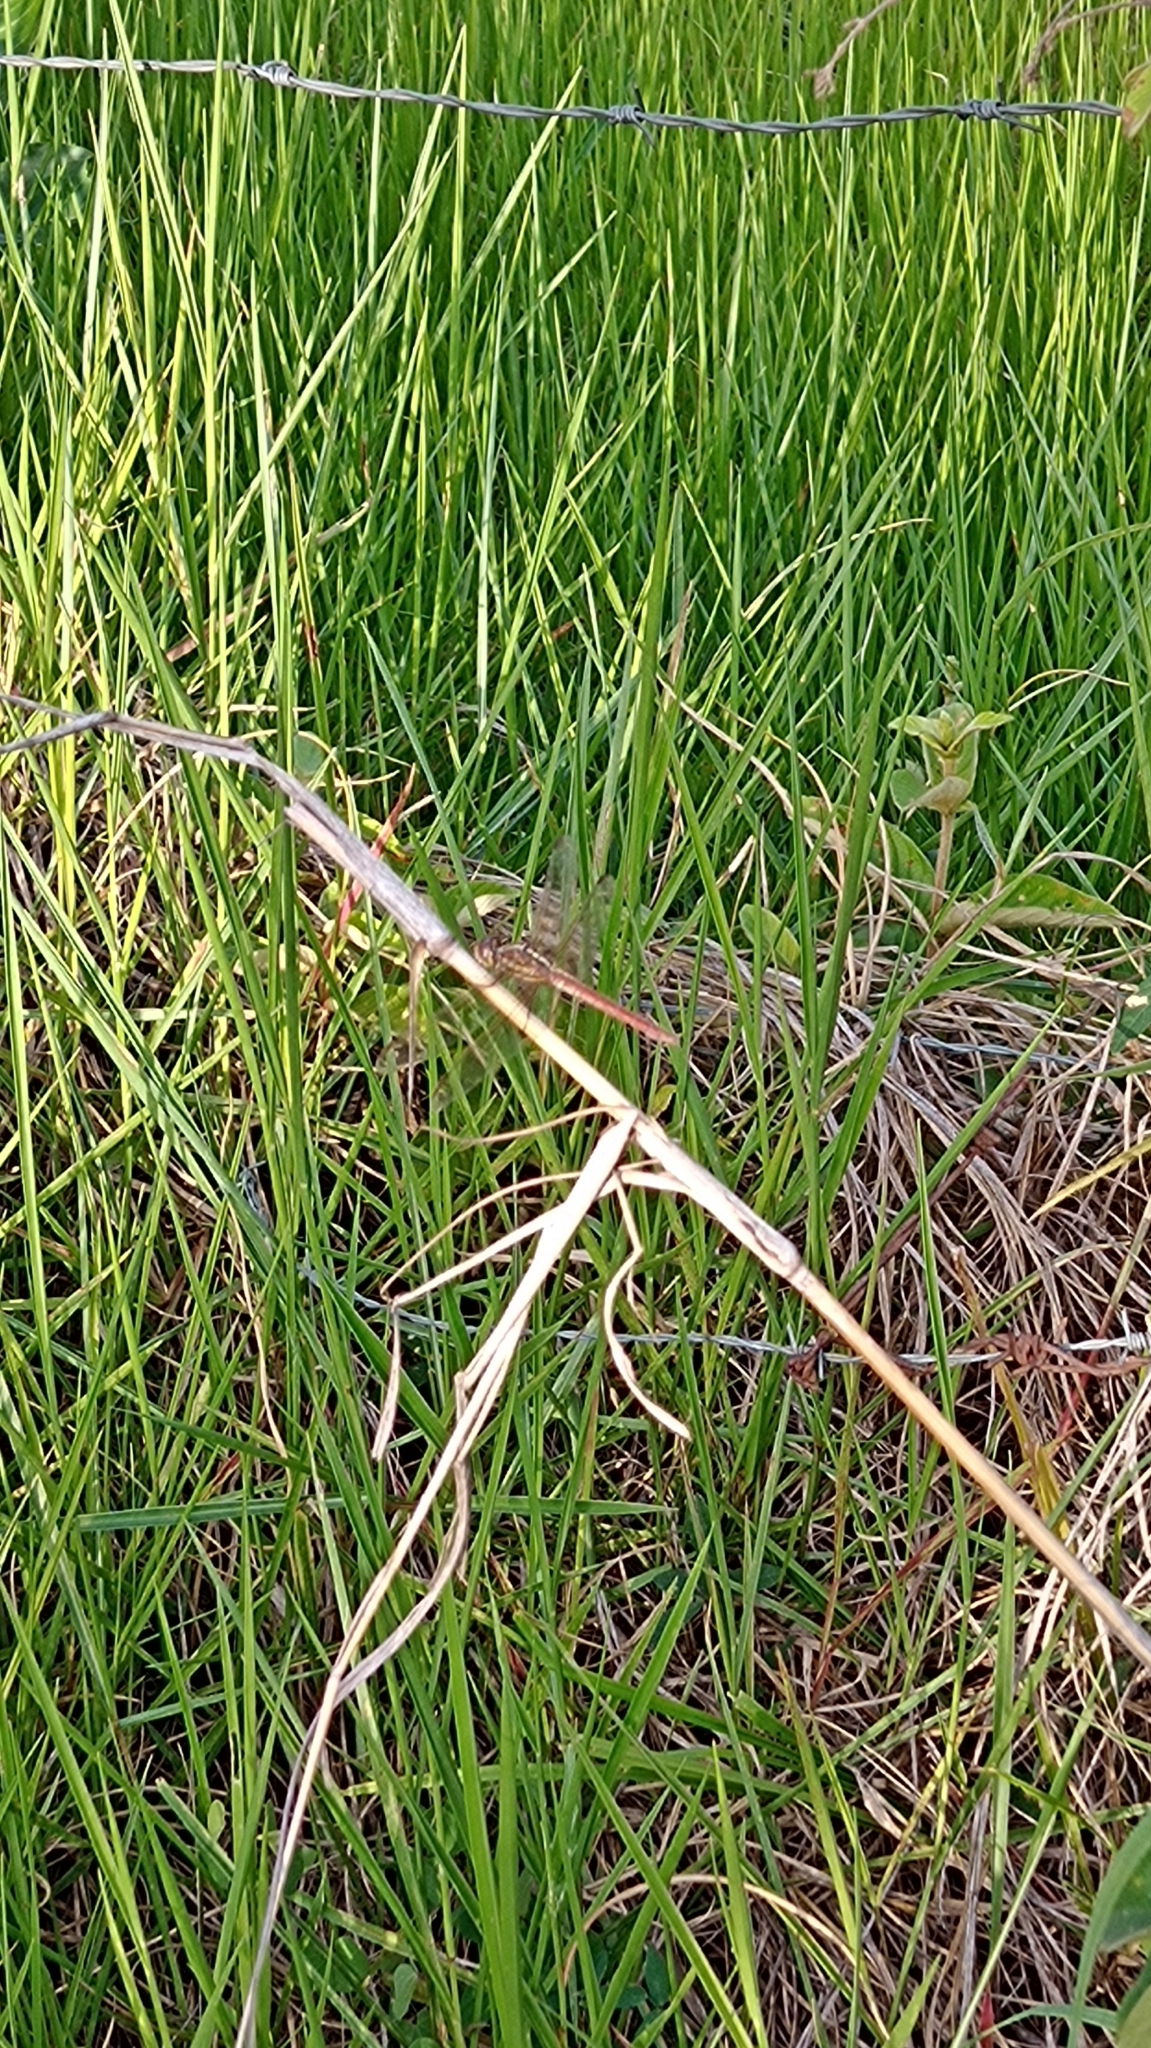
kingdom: Animalia
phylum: Arthropoda
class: Insecta
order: Odonata
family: Libellulidae
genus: Orthemis
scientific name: Orthemis aequilibris
